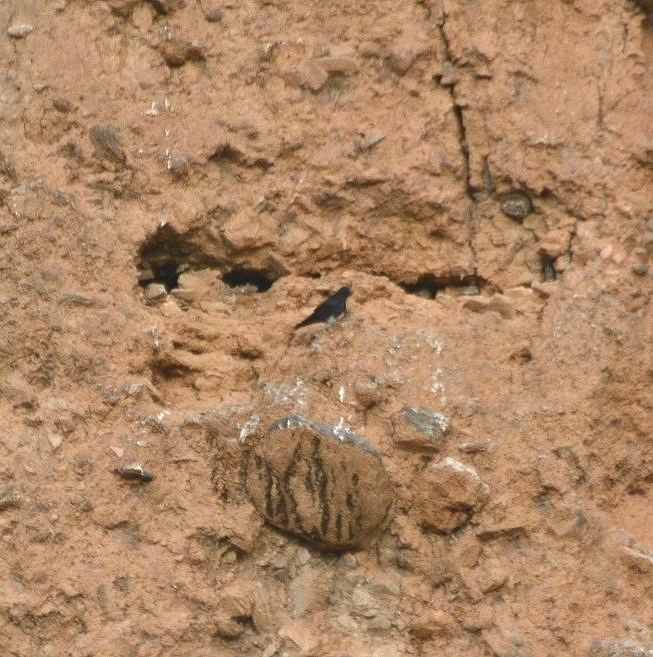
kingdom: Animalia
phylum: Chordata
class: Aves
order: Passeriformes
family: Hirundinidae
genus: Progne
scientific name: Progne elegans
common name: Southern martin
